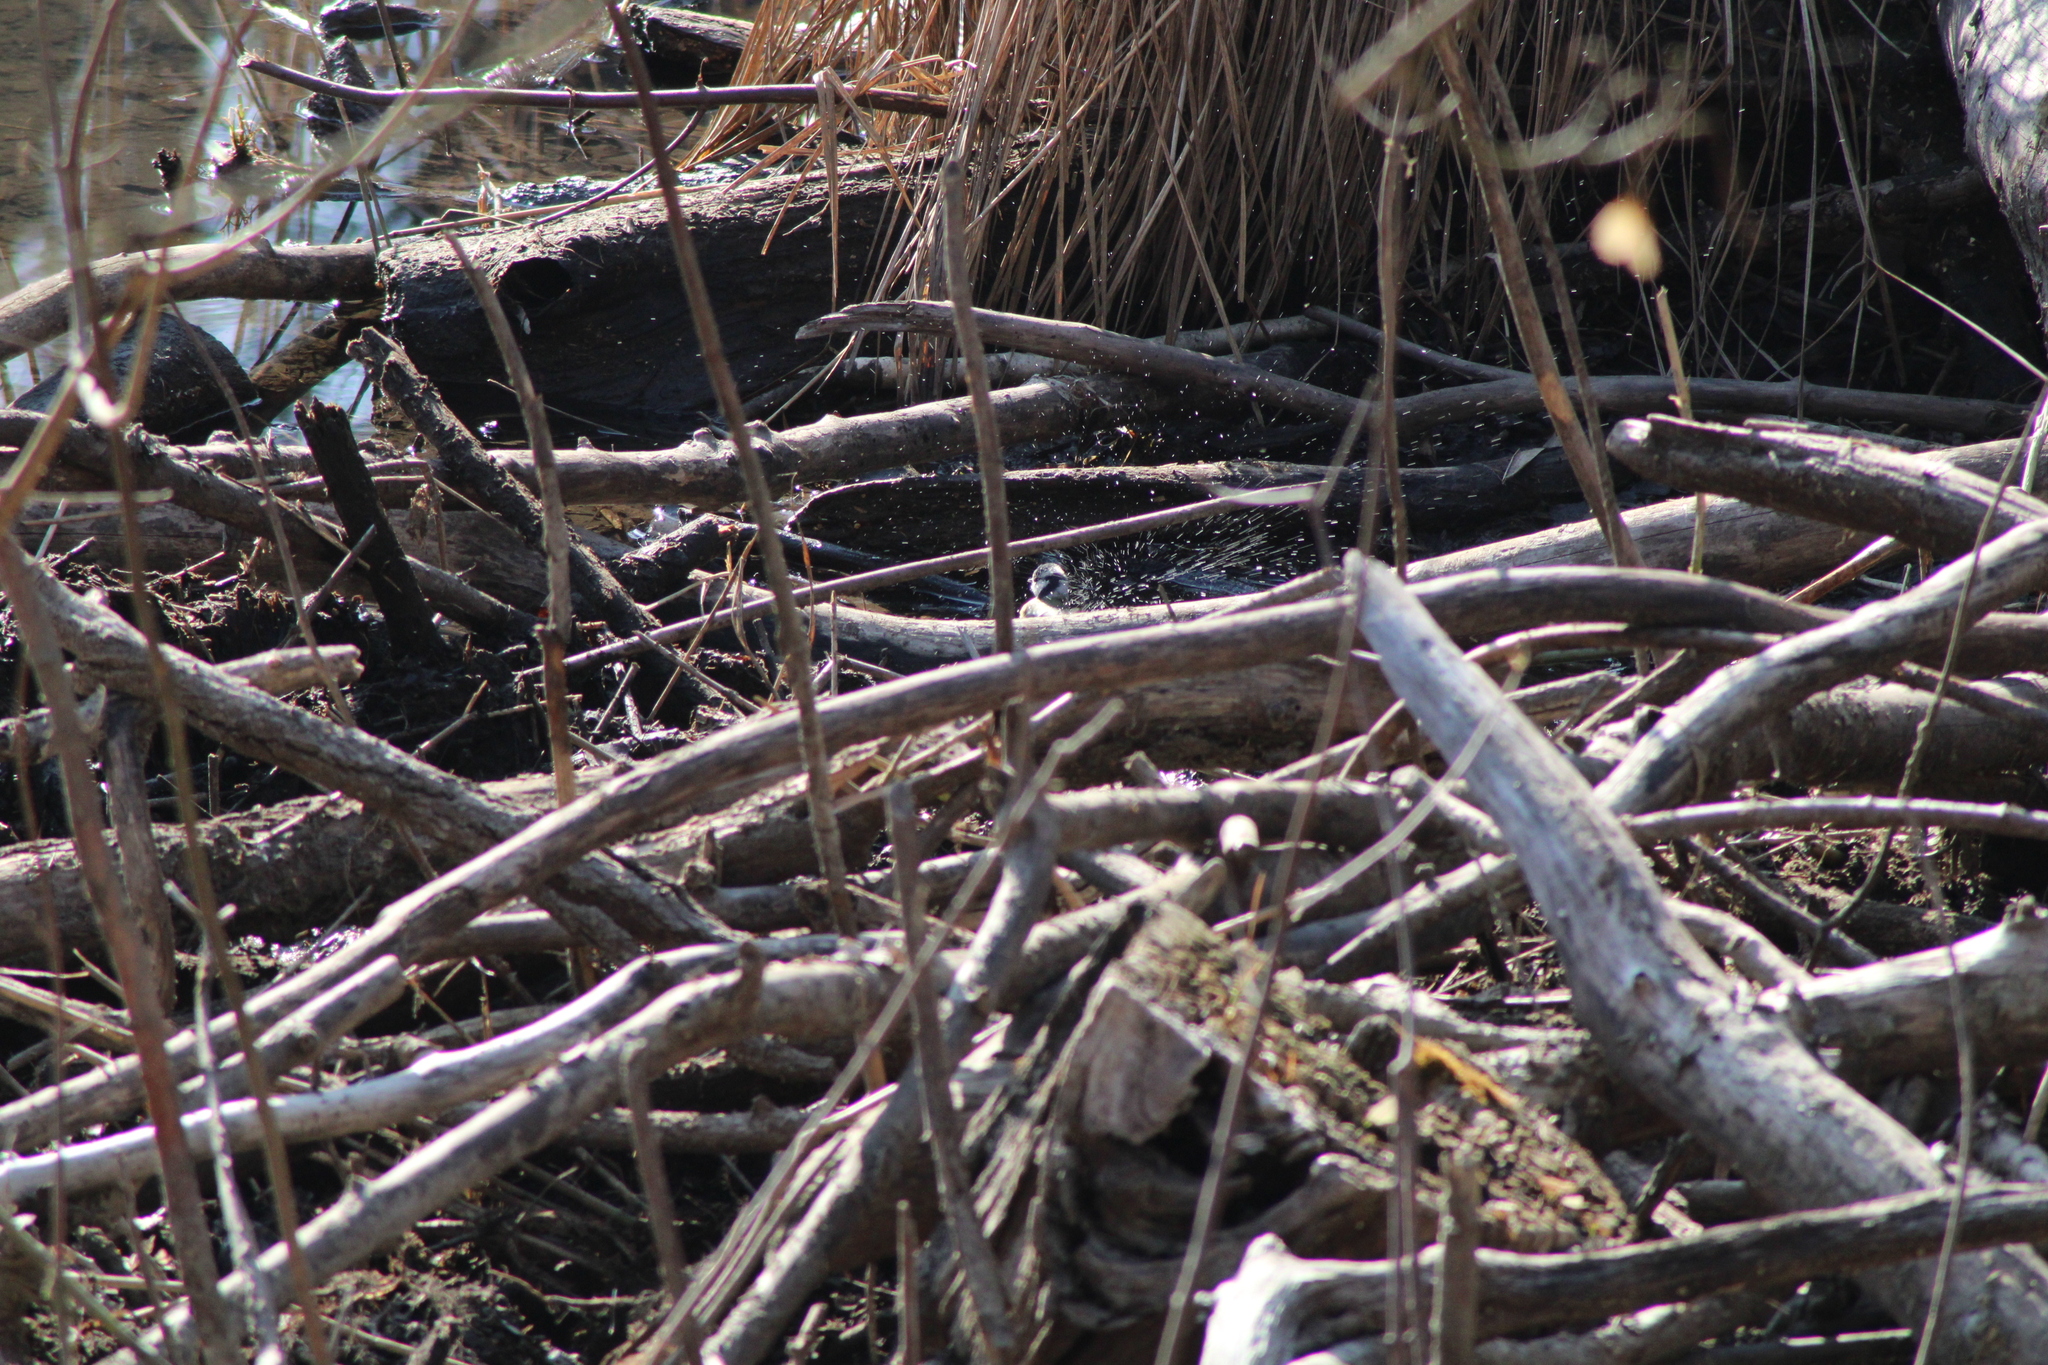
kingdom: Animalia
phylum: Chordata
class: Aves
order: Passeriformes
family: Paridae
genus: Cyanistes
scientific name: Cyanistes caeruleus
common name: Eurasian blue tit
